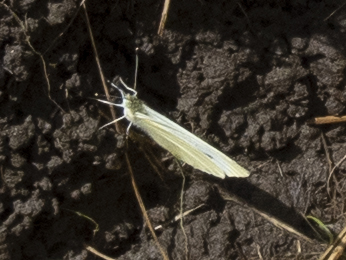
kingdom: Animalia
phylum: Arthropoda
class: Insecta
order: Lepidoptera
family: Pieridae
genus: Pieris
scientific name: Pieris rapae
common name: Small white
